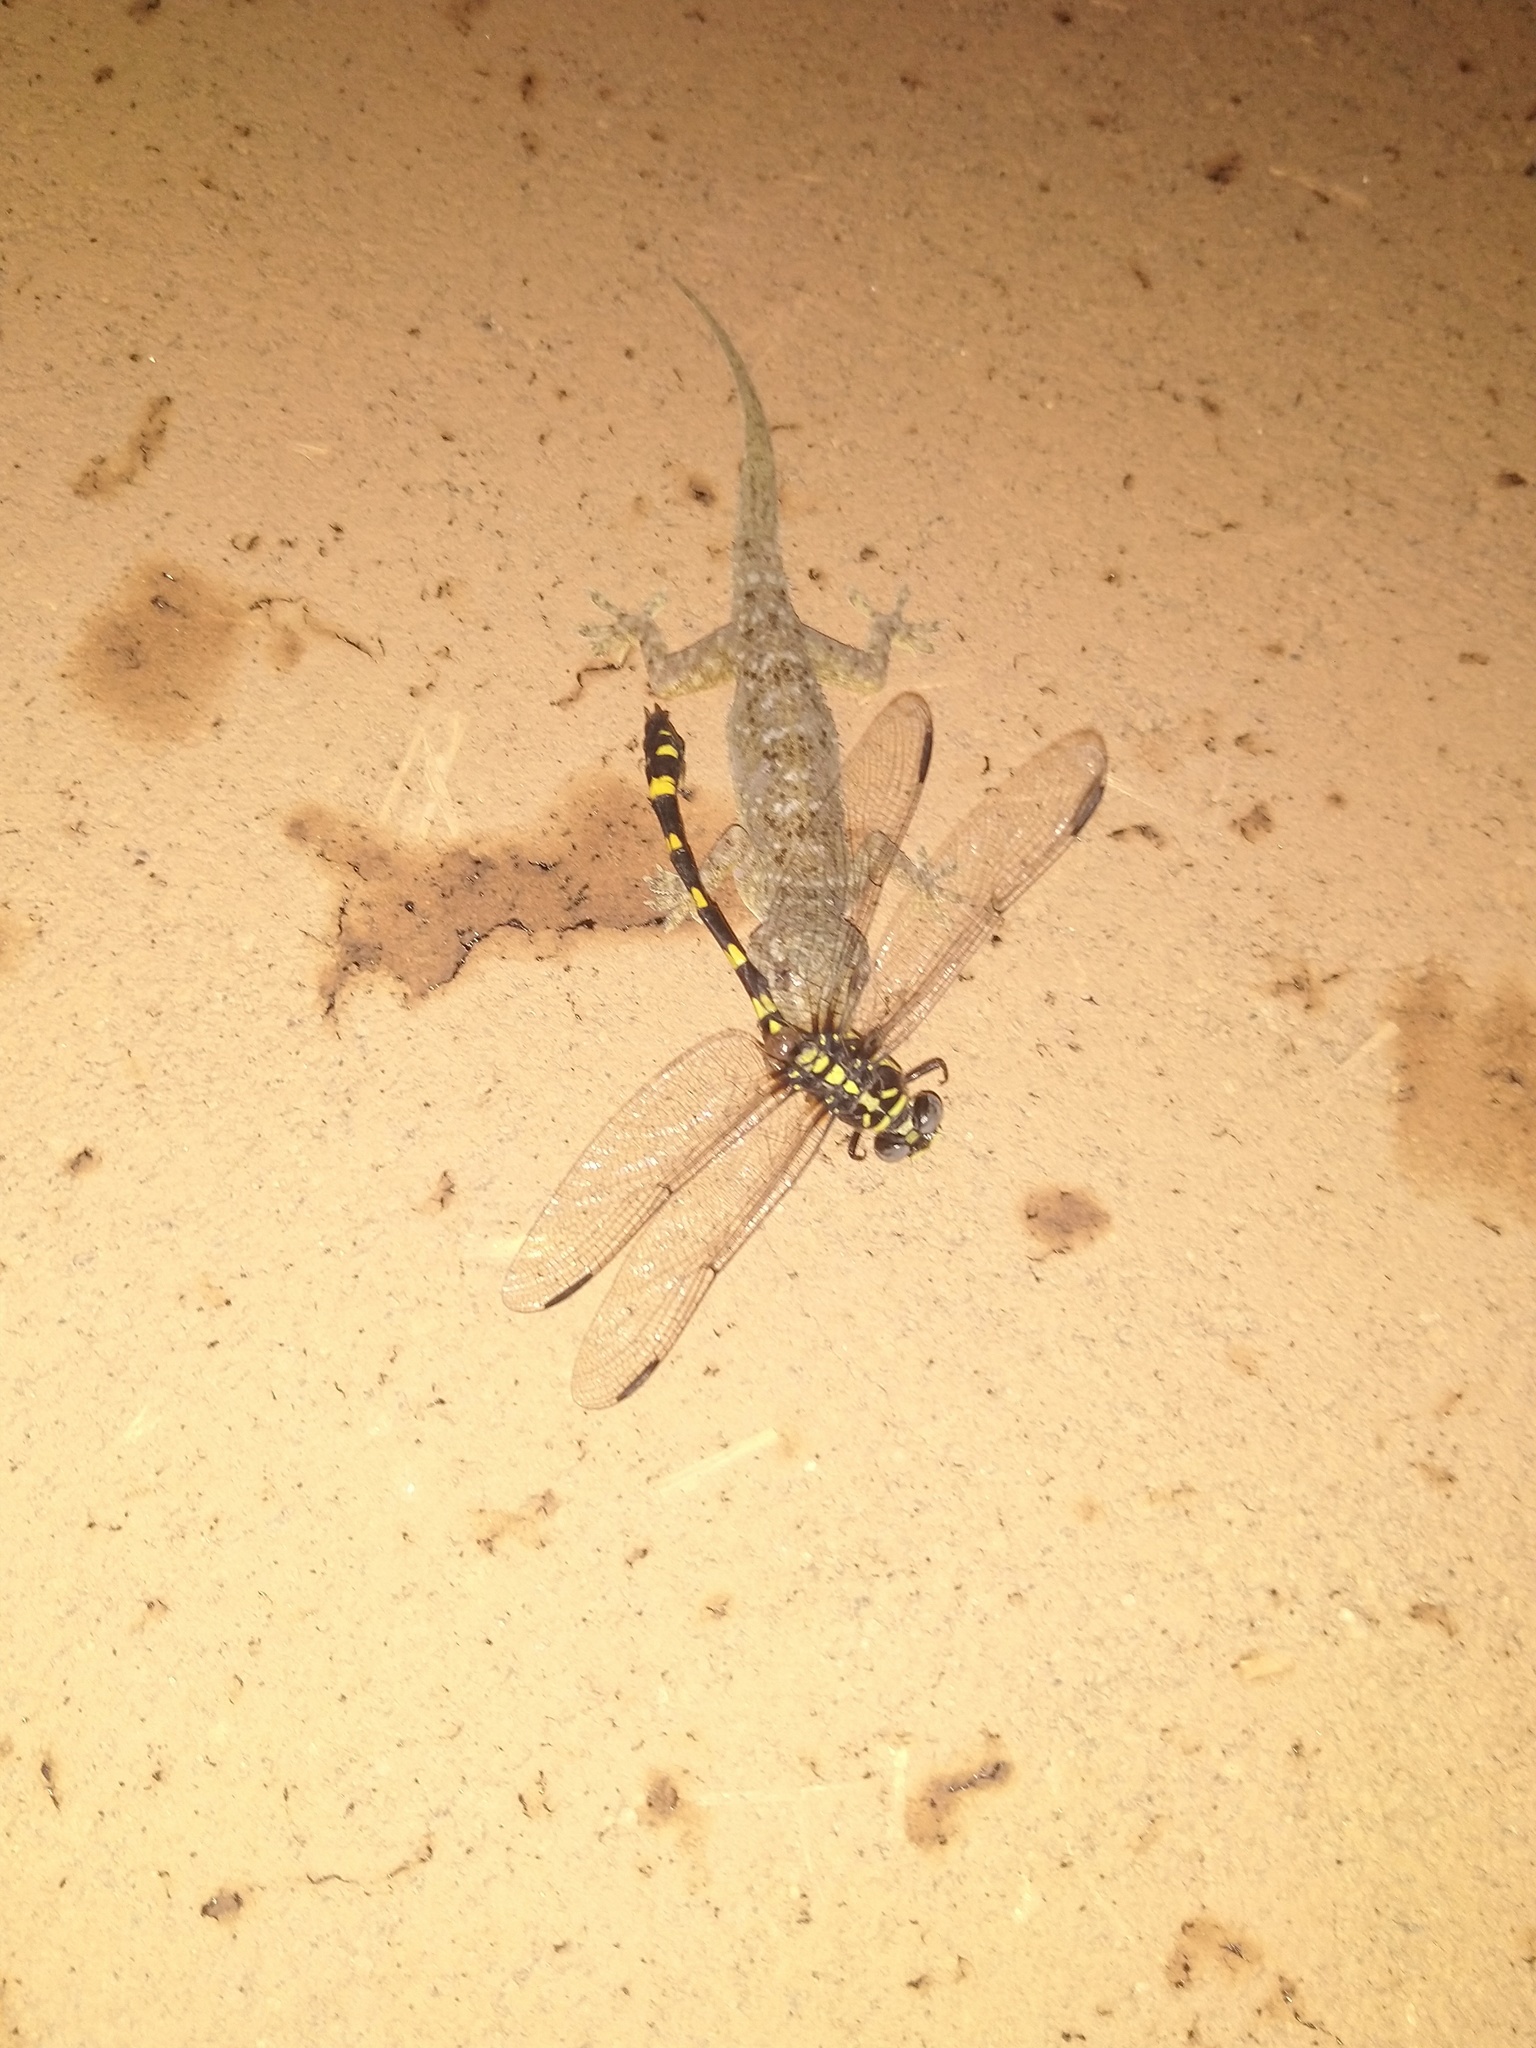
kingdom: Animalia
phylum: Arthropoda
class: Insecta
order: Odonata
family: Gomphidae
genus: Ictinogomphus
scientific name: Ictinogomphus rapax
